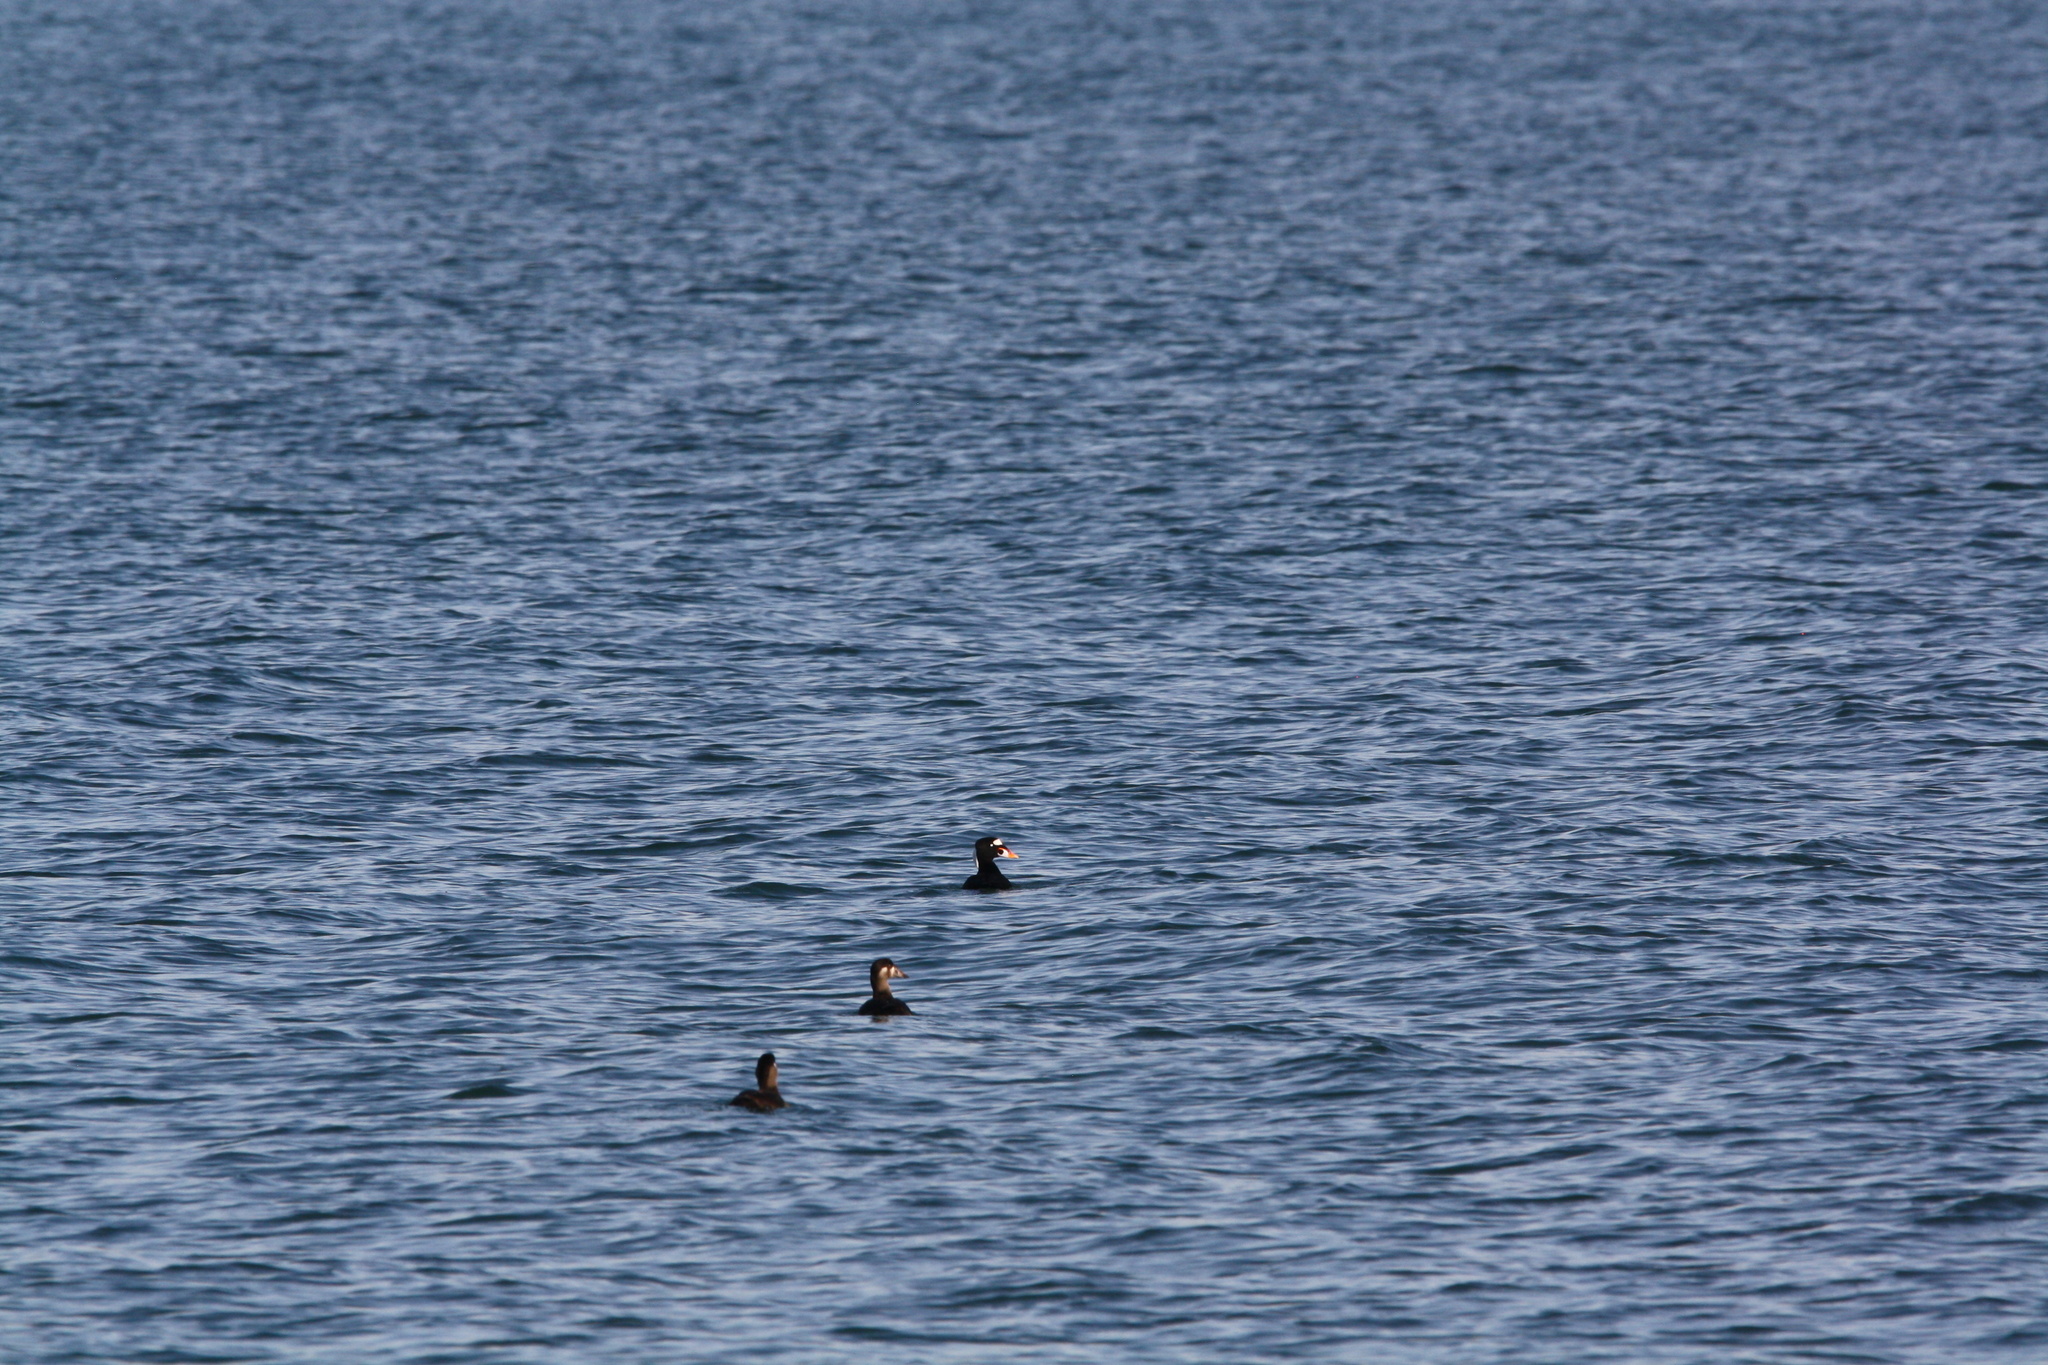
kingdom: Animalia
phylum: Chordata
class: Aves
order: Anseriformes
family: Anatidae
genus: Melanitta
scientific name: Melanitta perspicillata
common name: Surf scoter
